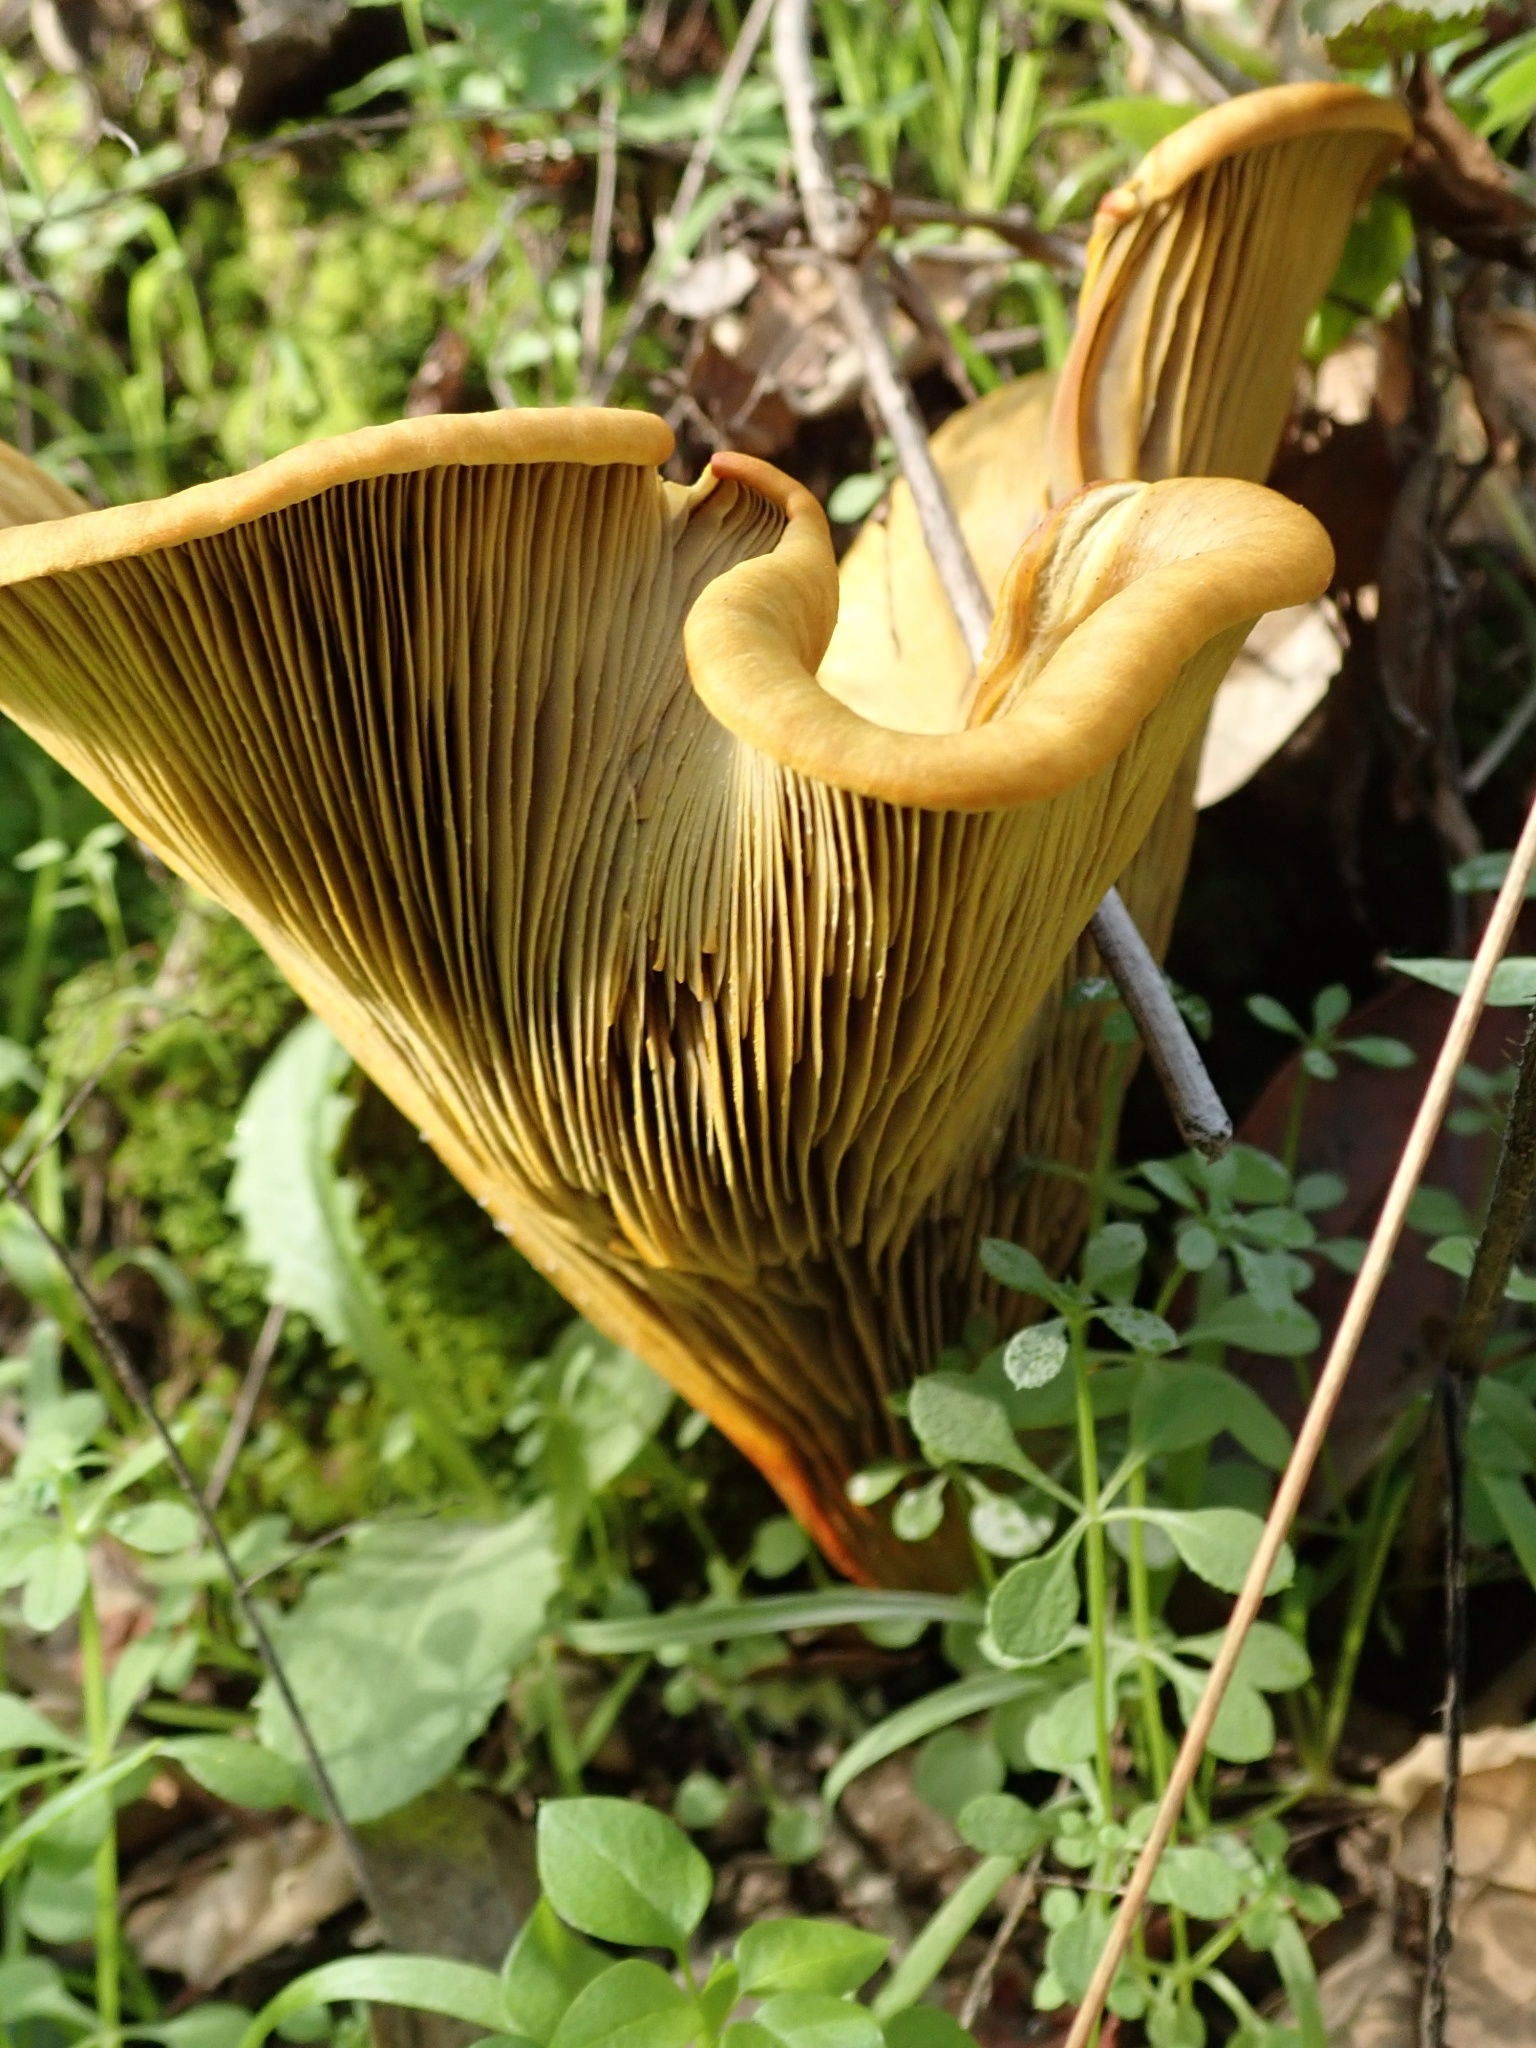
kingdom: Fungi
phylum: Basidiomycota
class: Agaricomycetes
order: Agaricales
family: Omphalotaceae
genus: Omphalotus
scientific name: Omphalotus olivascens
